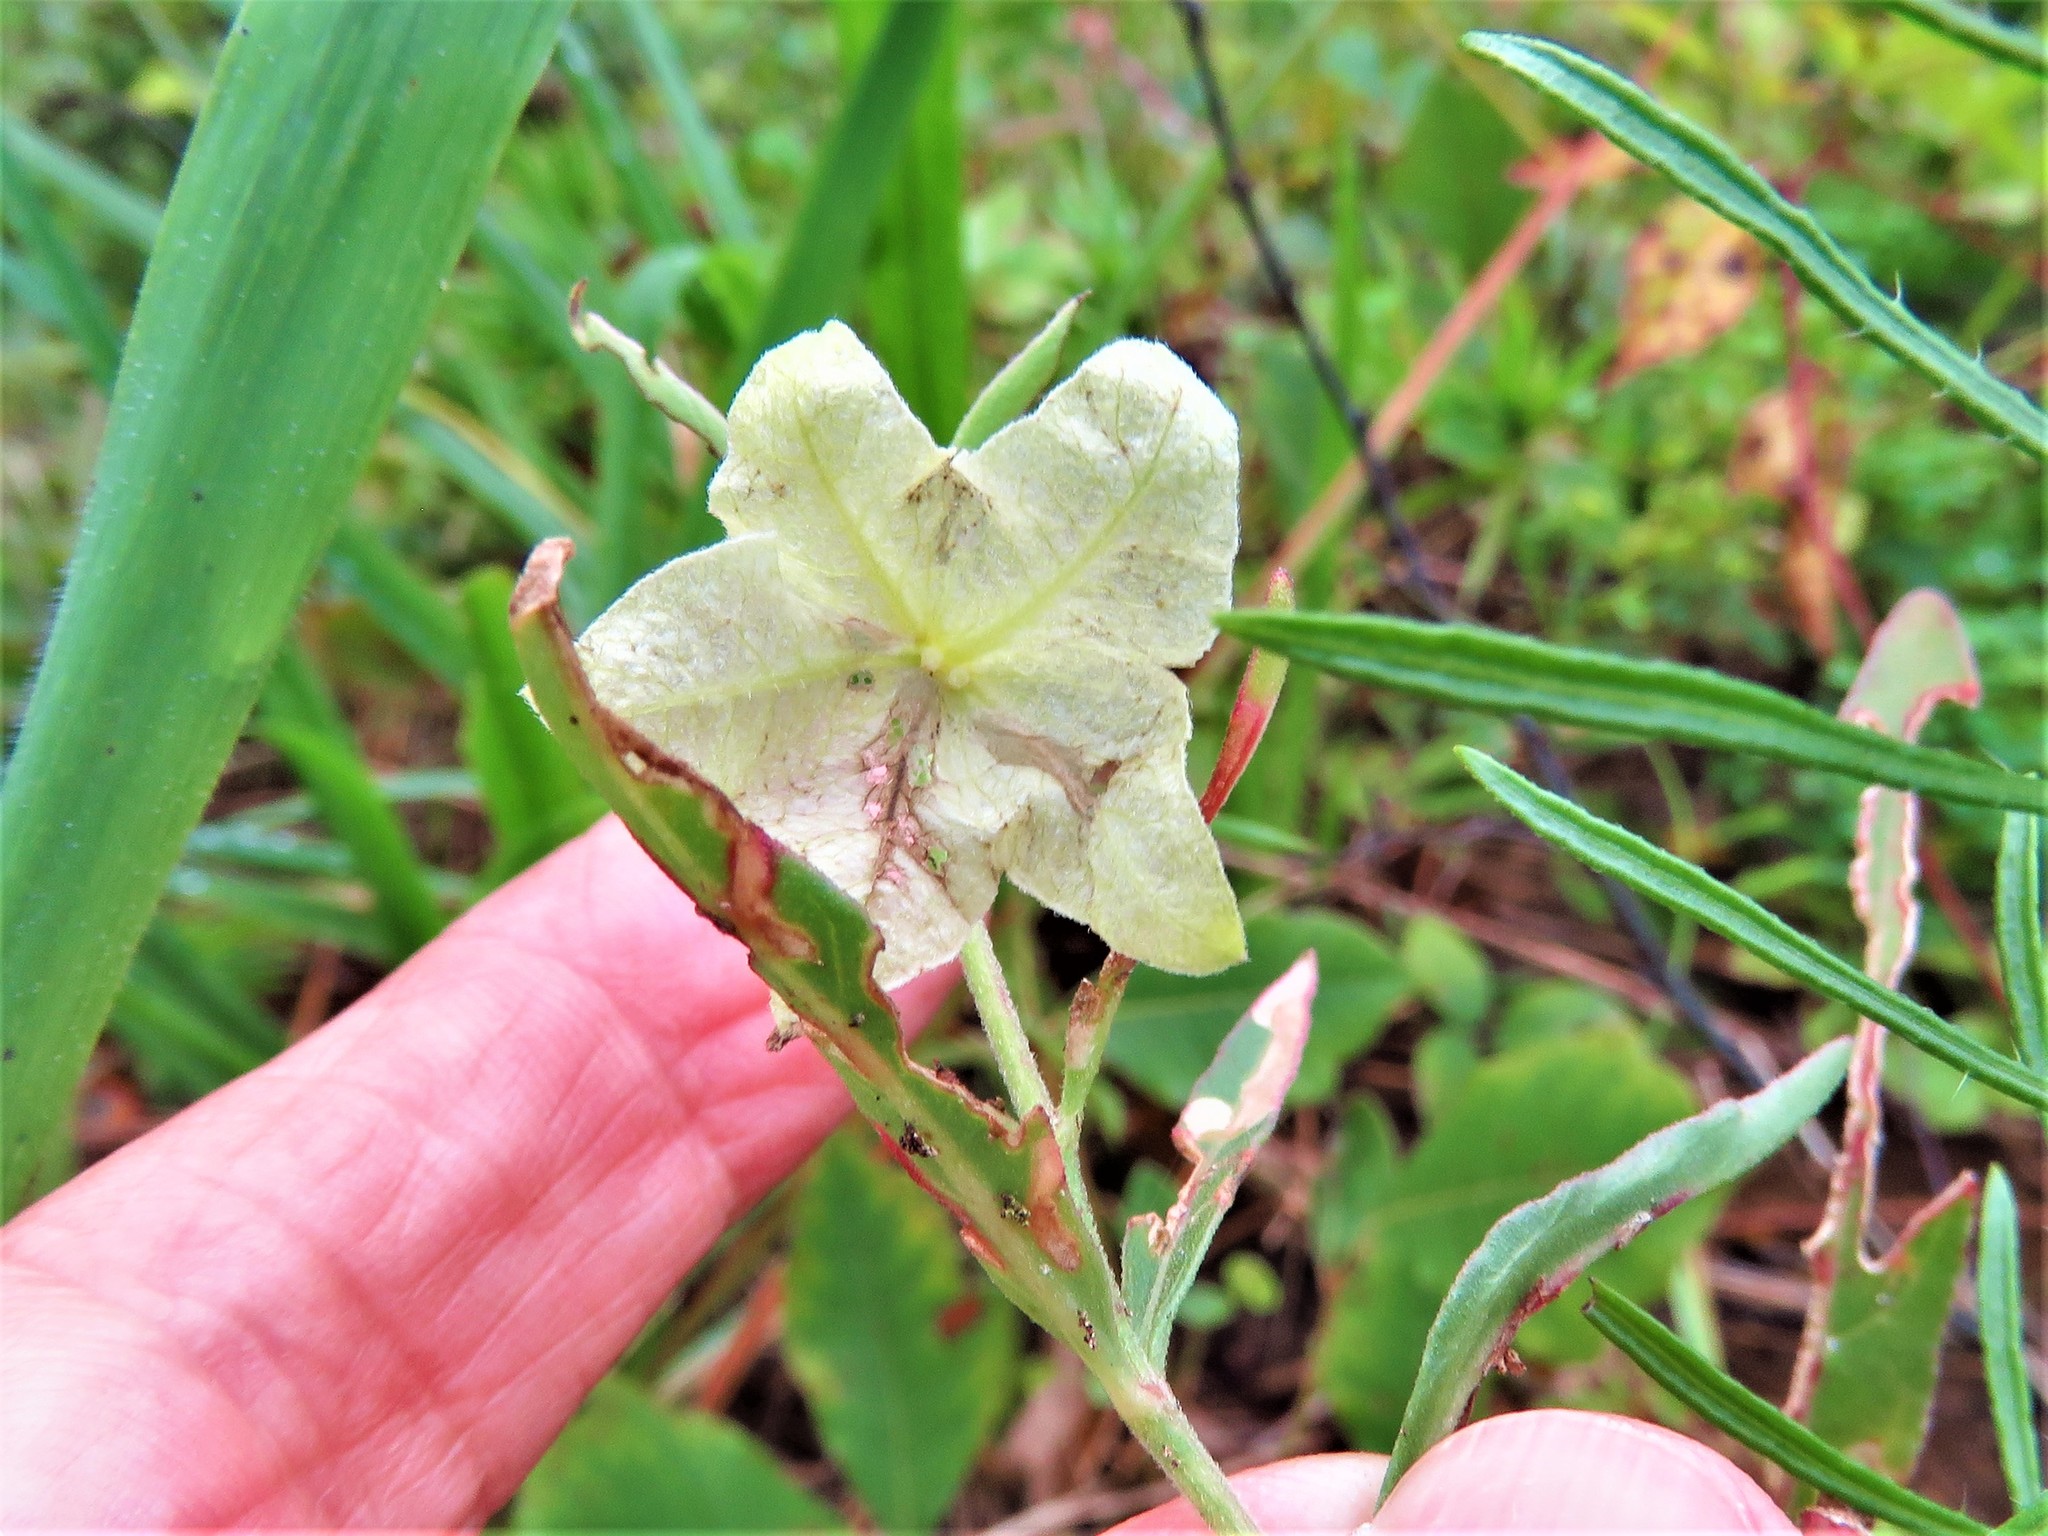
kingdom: Plantae
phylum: Tracheophyta
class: Magnoliopsida
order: Caryophyllales
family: Nyctaginaceae
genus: Mirabilis
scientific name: Mirabilis albida
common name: Hairy four-o'clock
